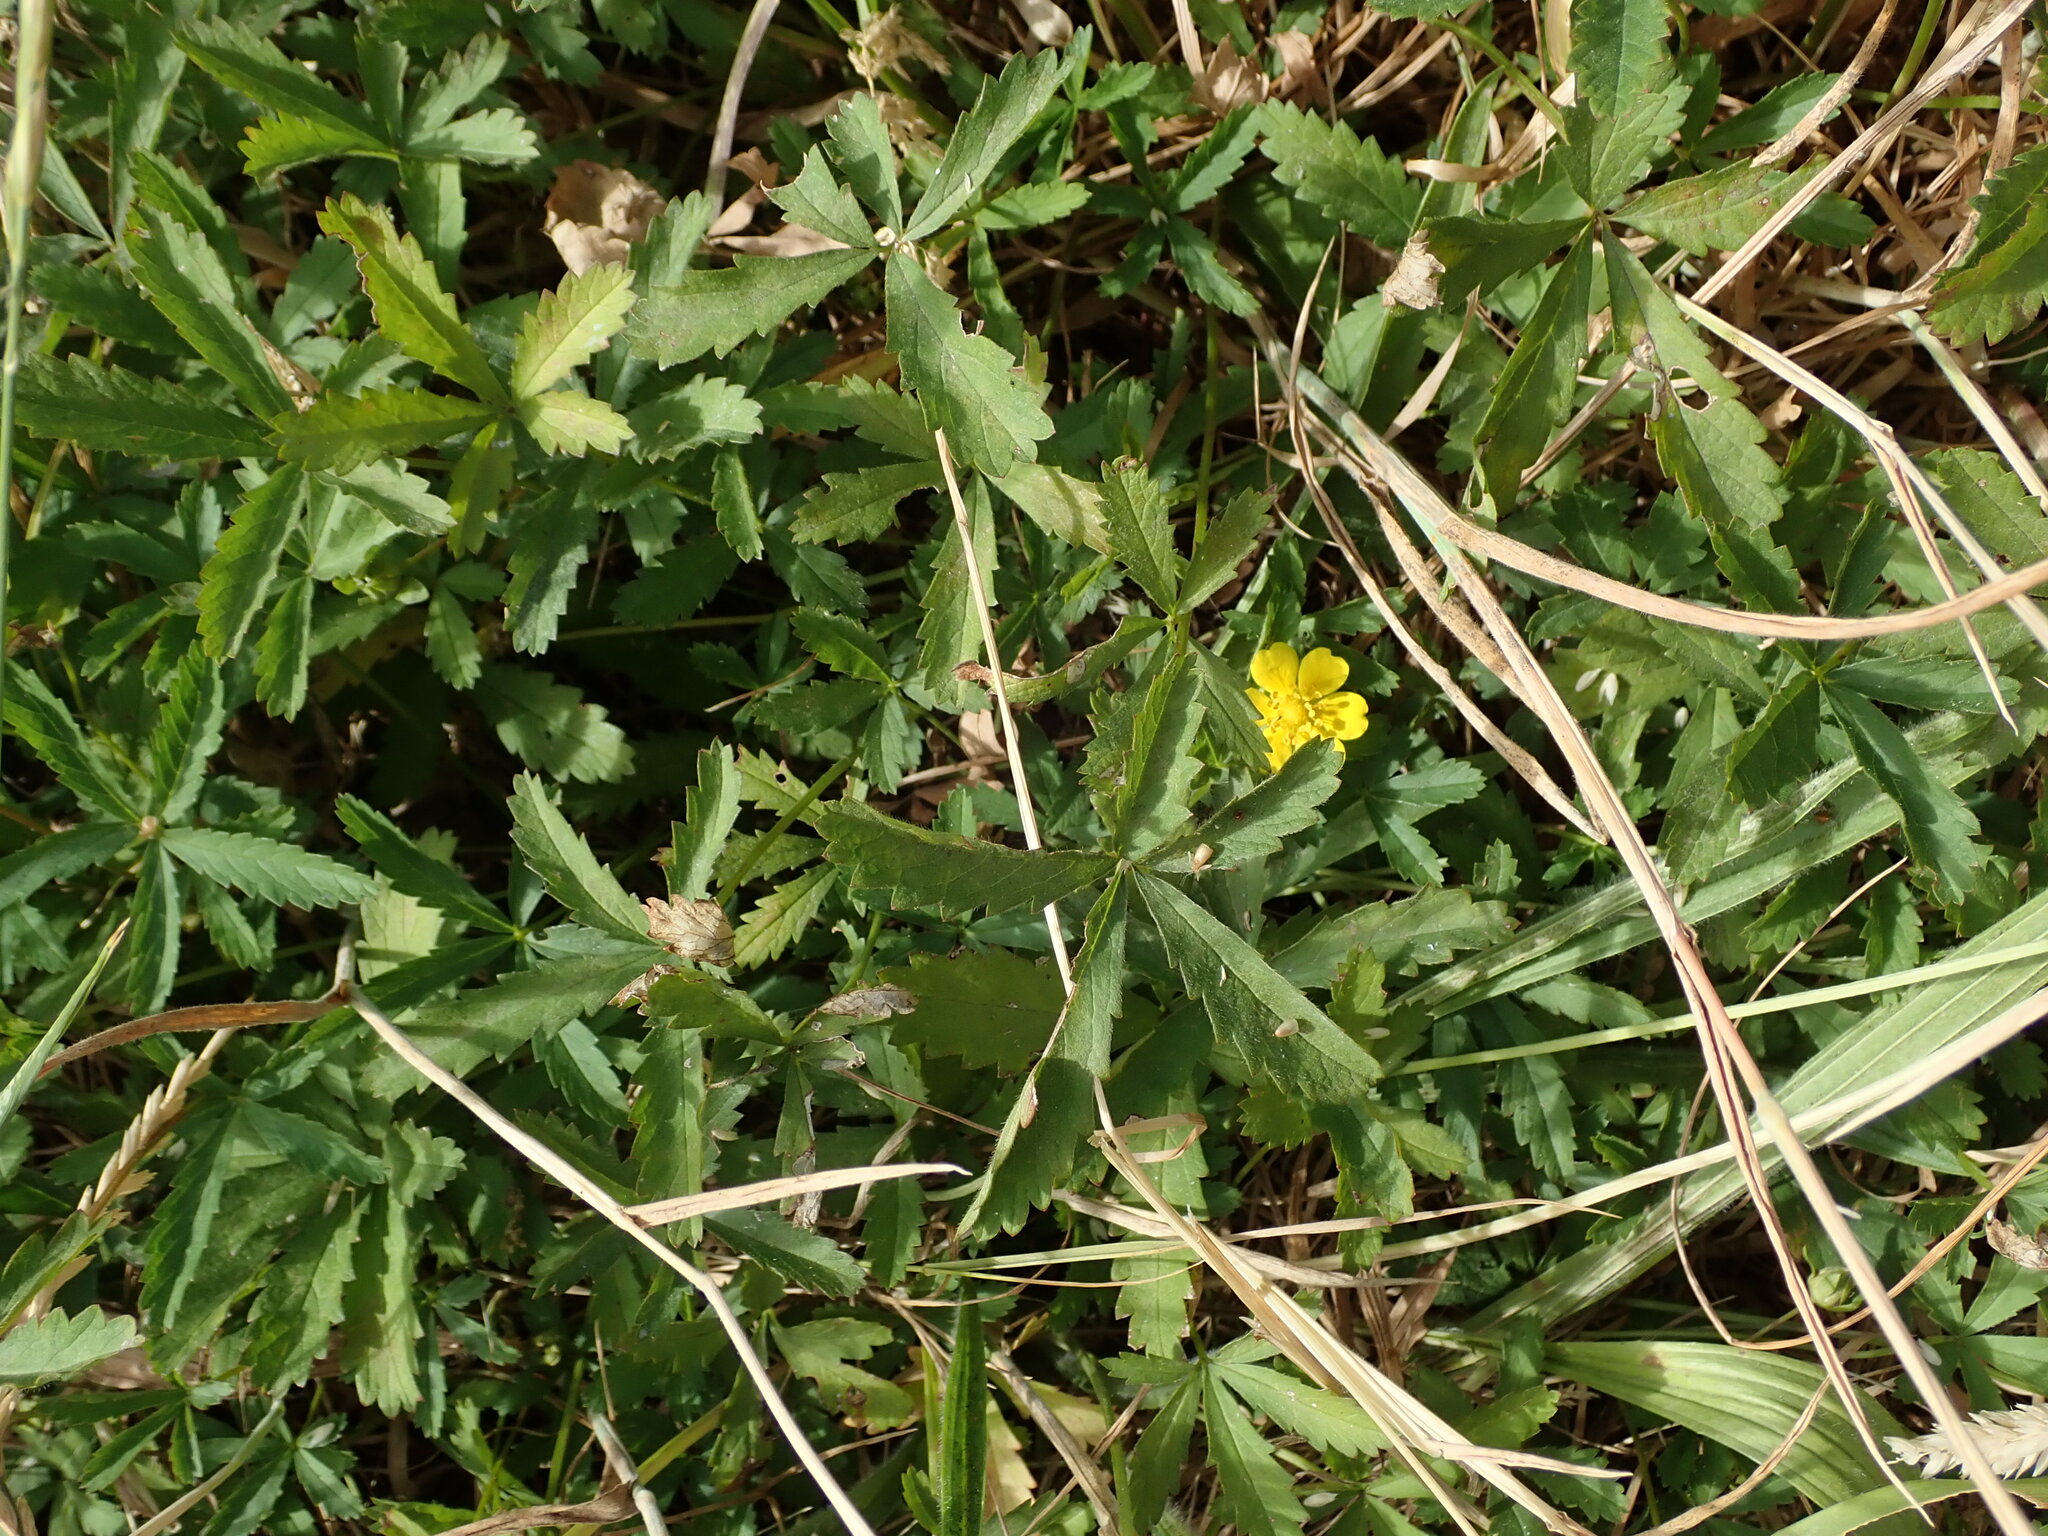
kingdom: Plantae
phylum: Tracheophyta
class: Magnoliopsida
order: Rosales
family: Rosaceae
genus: Potentilla
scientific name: Potentilla reptans
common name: Creeping cinquefoil
